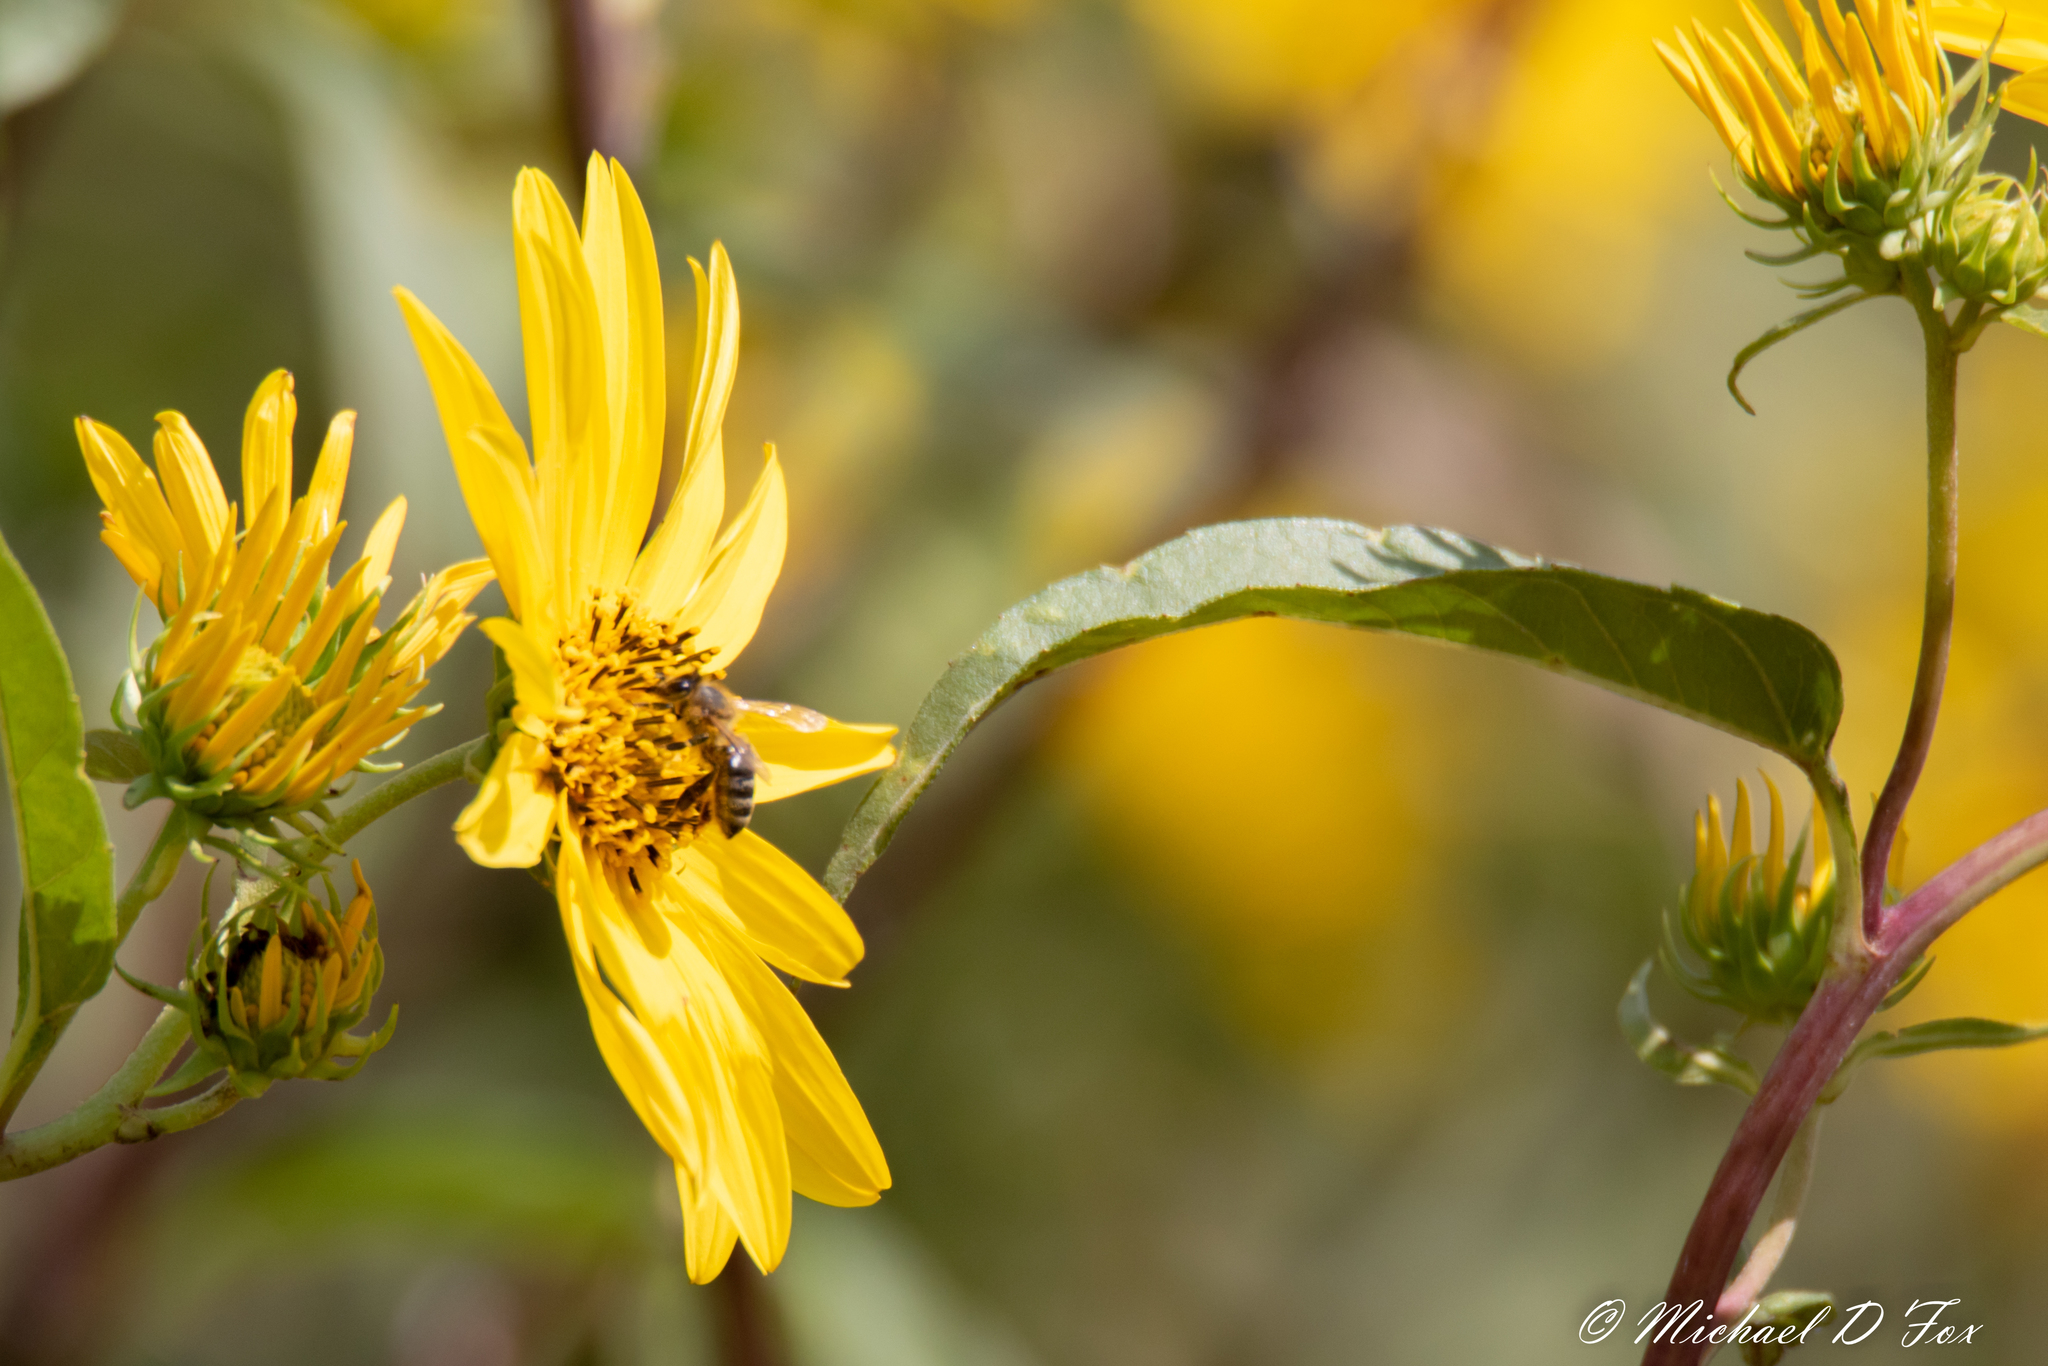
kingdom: Animalia
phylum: Arthropoda
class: Insecta
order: Hymenoptera
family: Apidae
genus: Apis
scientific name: Apis mellifera
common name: Honey bee
